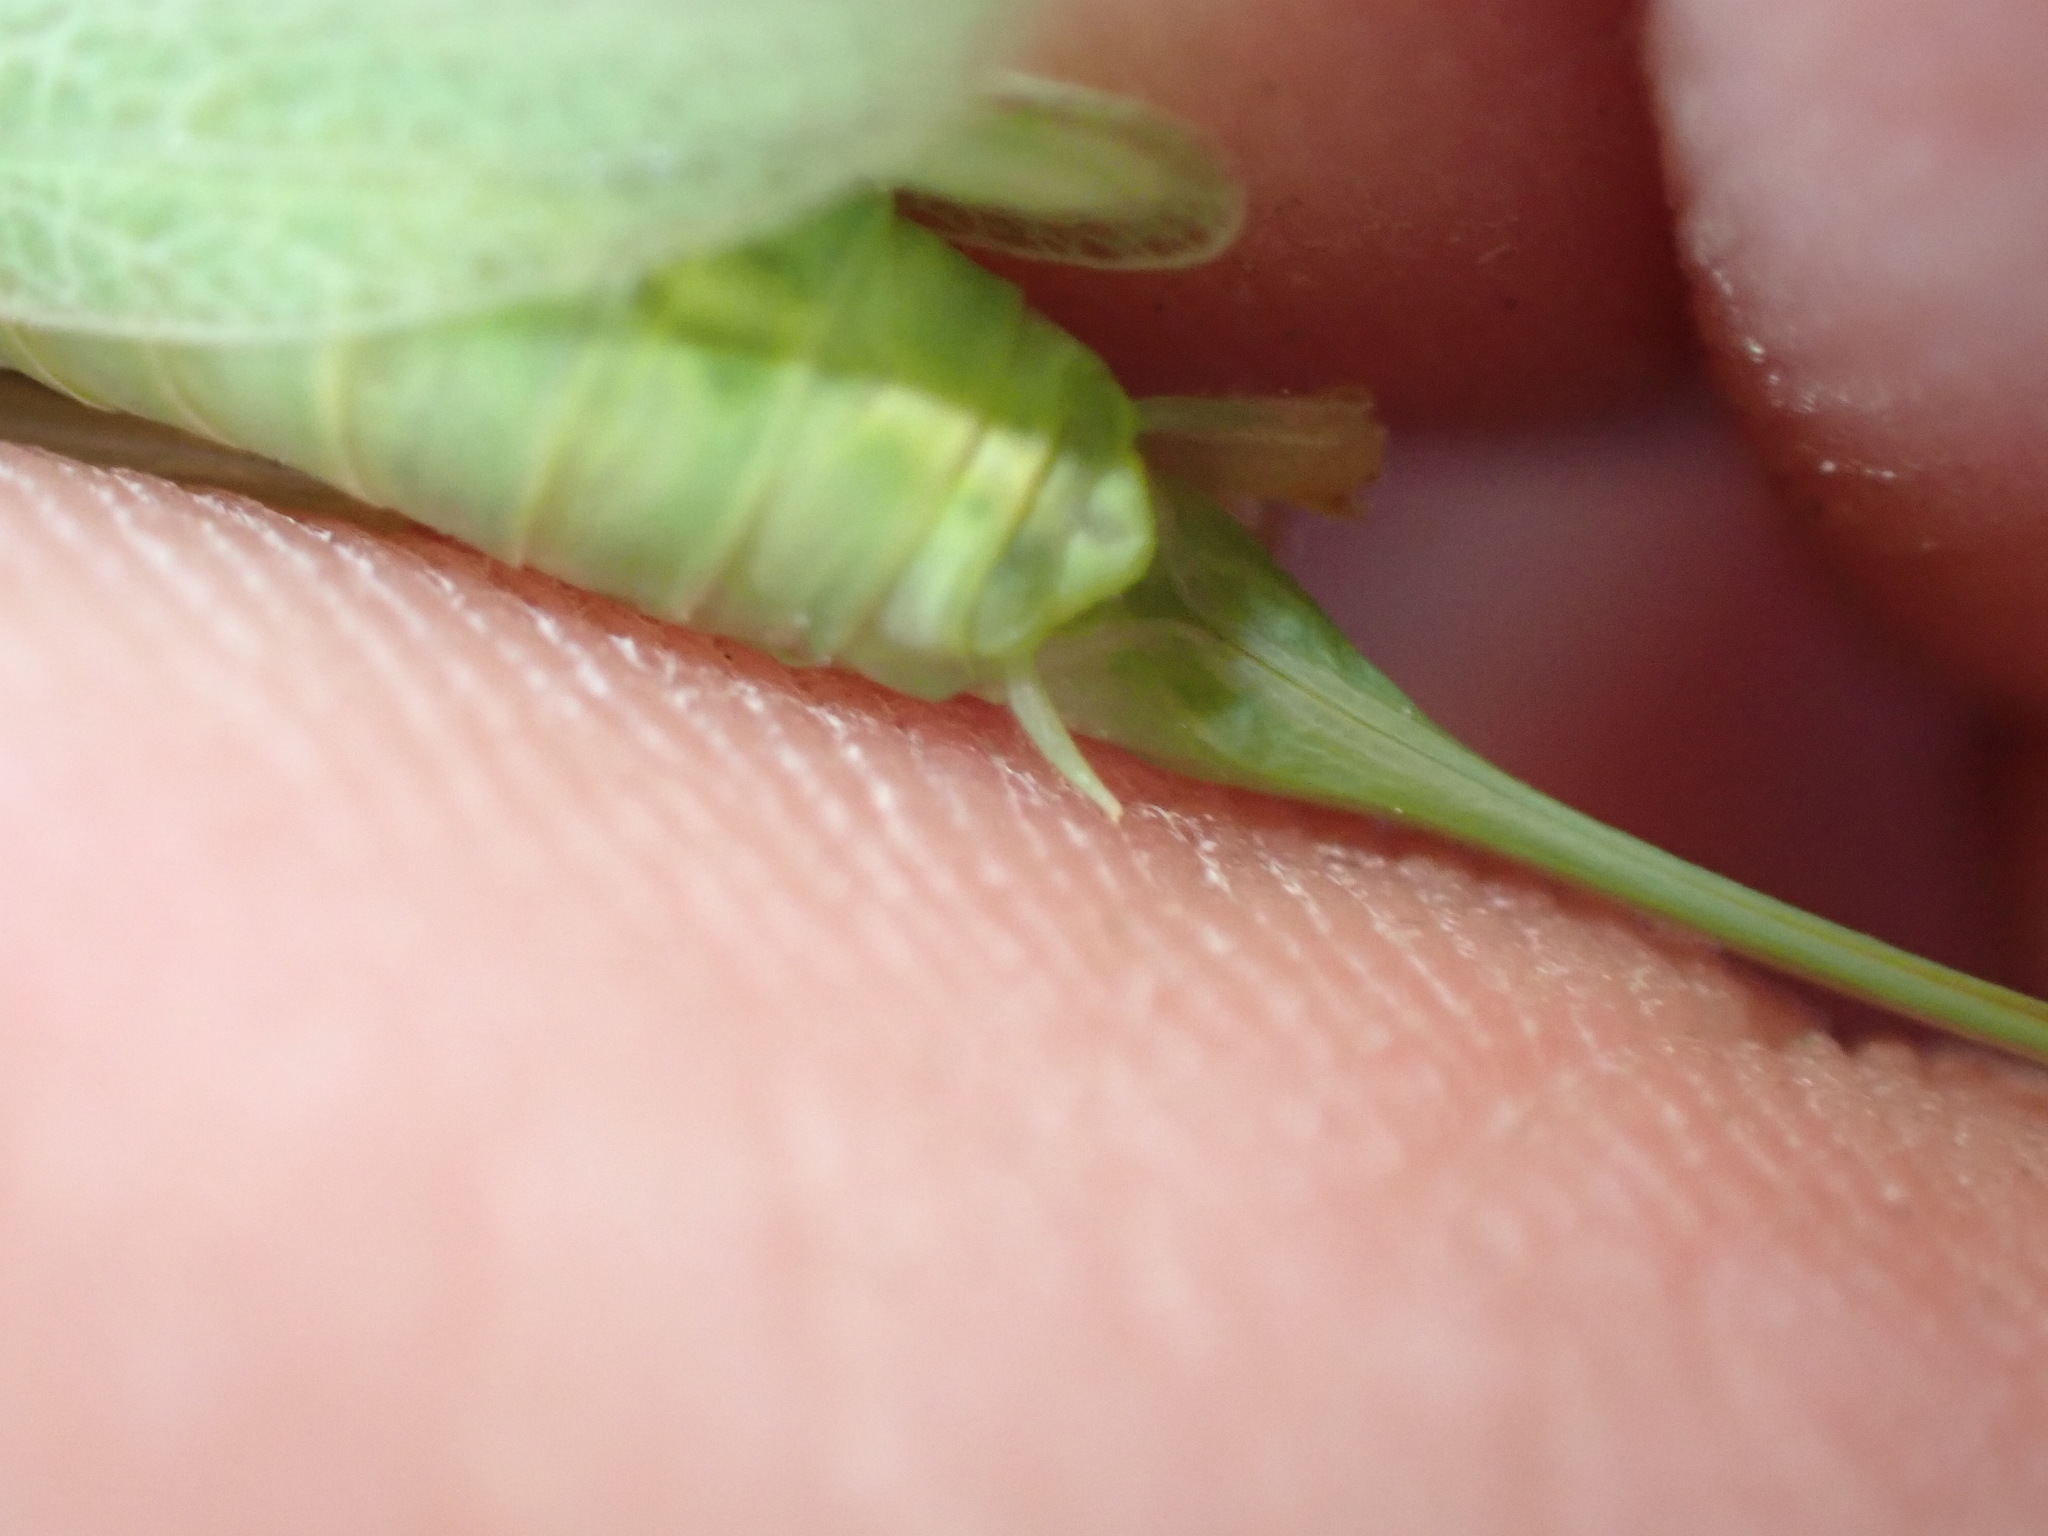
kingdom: Animalia
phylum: Arthropoda
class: Insecta
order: Orthoptera
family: Tettigoniidae
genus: Meconema
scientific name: Meconema thalassinum
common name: Oak bush-cricket
